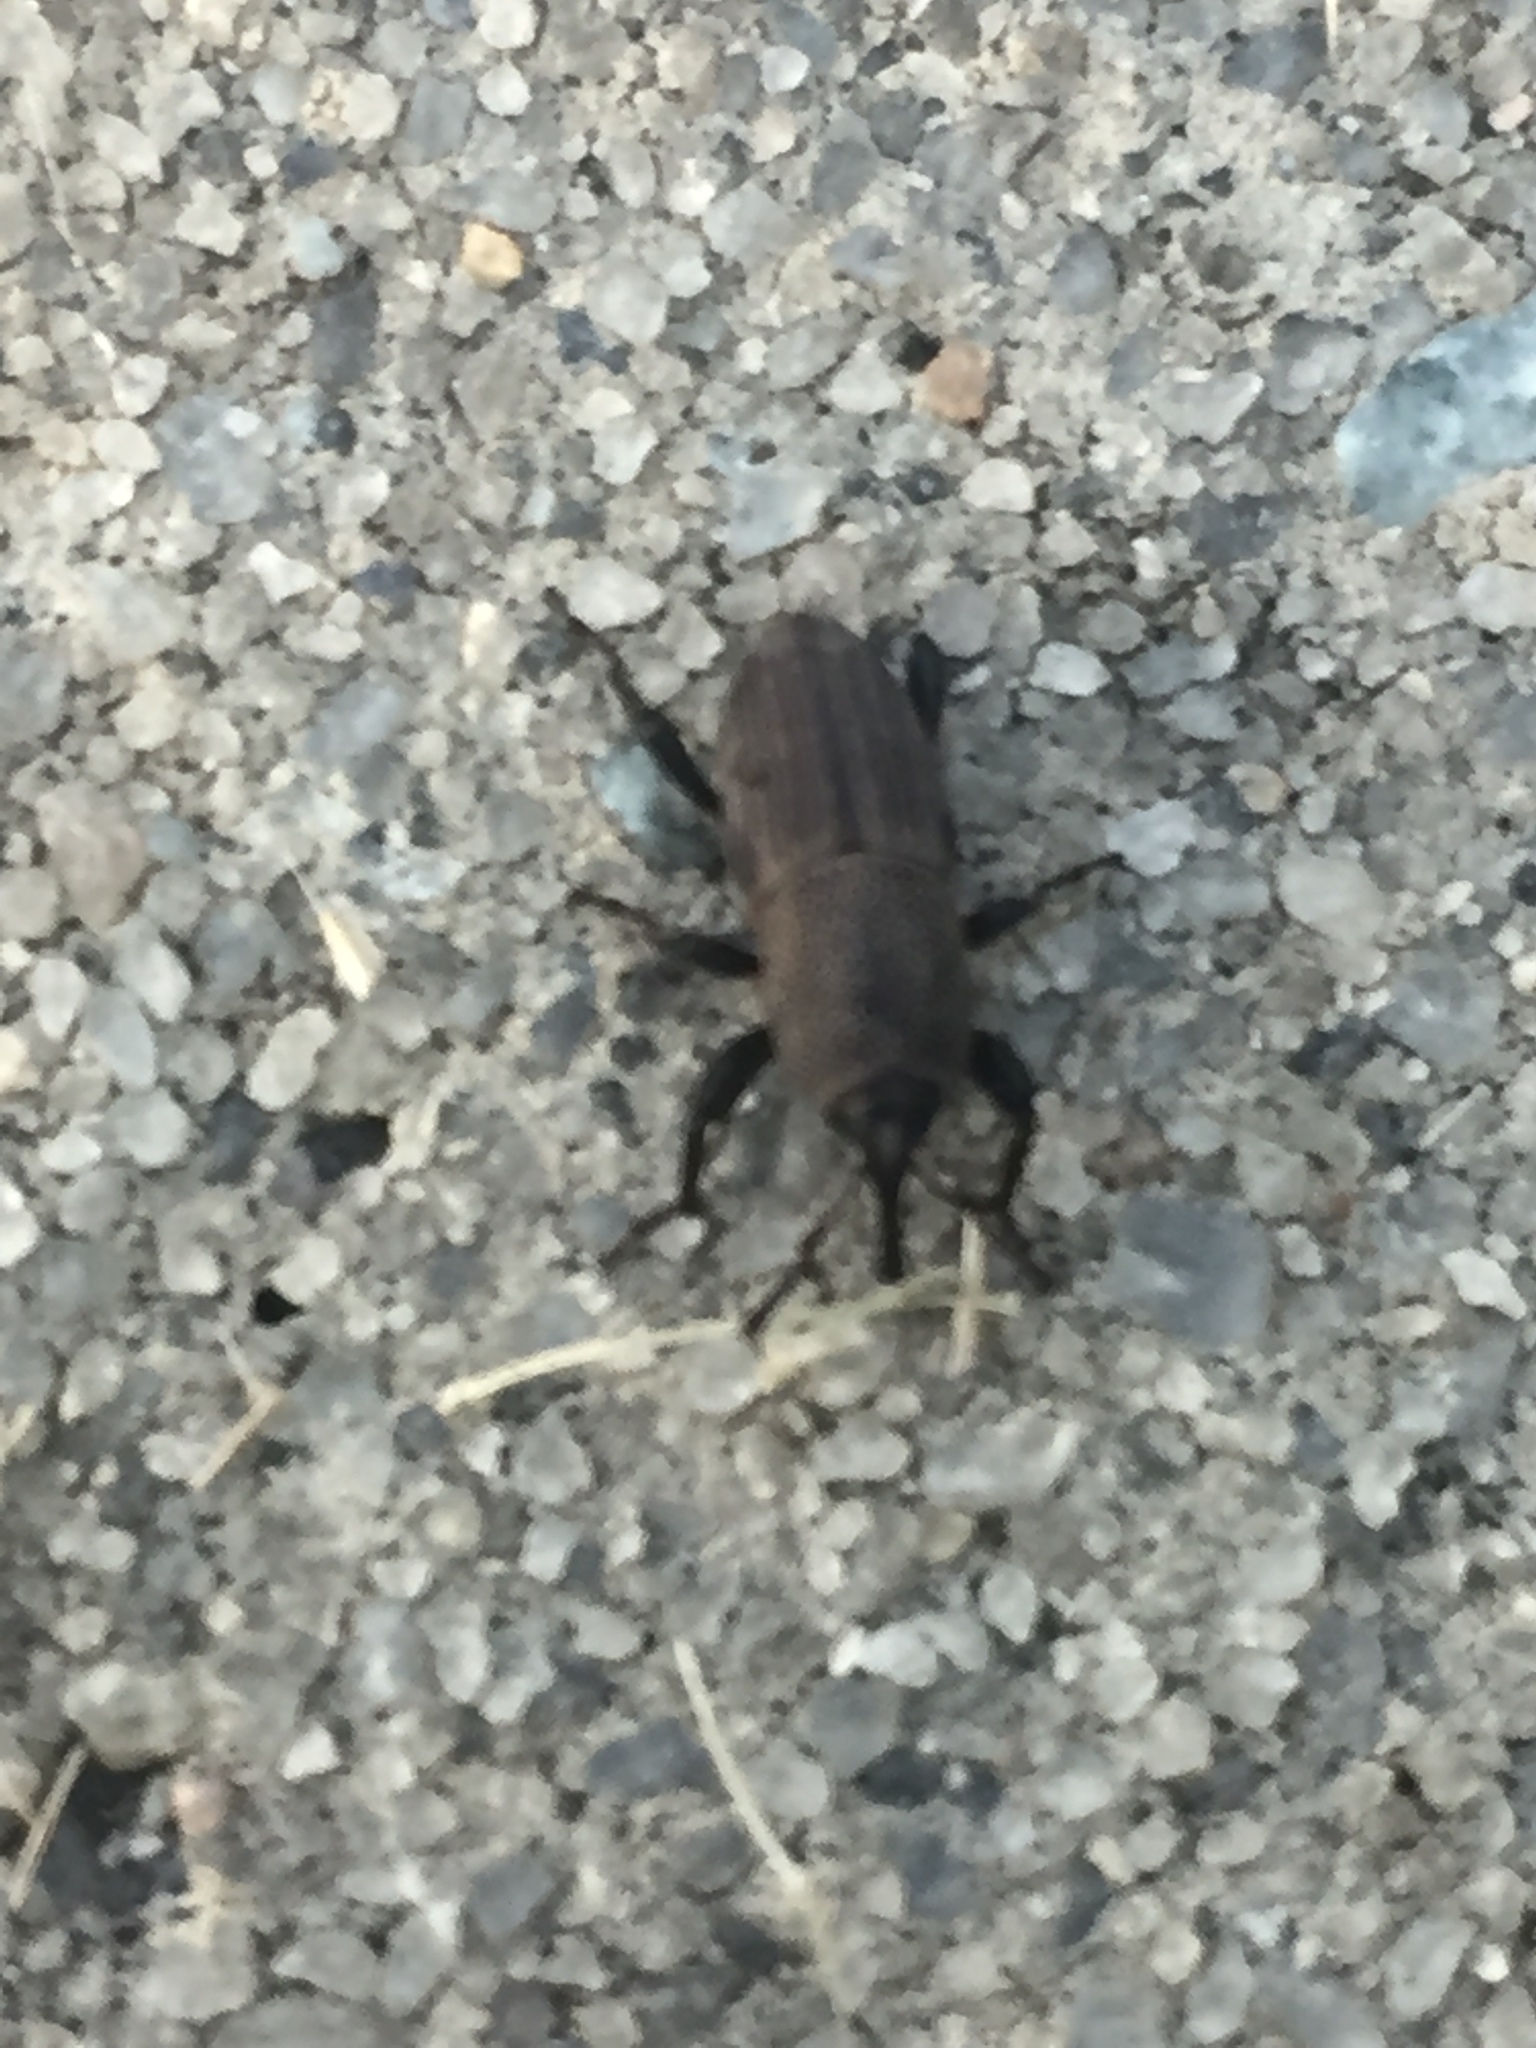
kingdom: Animalia
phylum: Arthropoda
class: Insecta
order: Coleoptera
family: Dryophthoridae
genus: Sphenophorus
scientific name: Sphenophorus coesifrons
